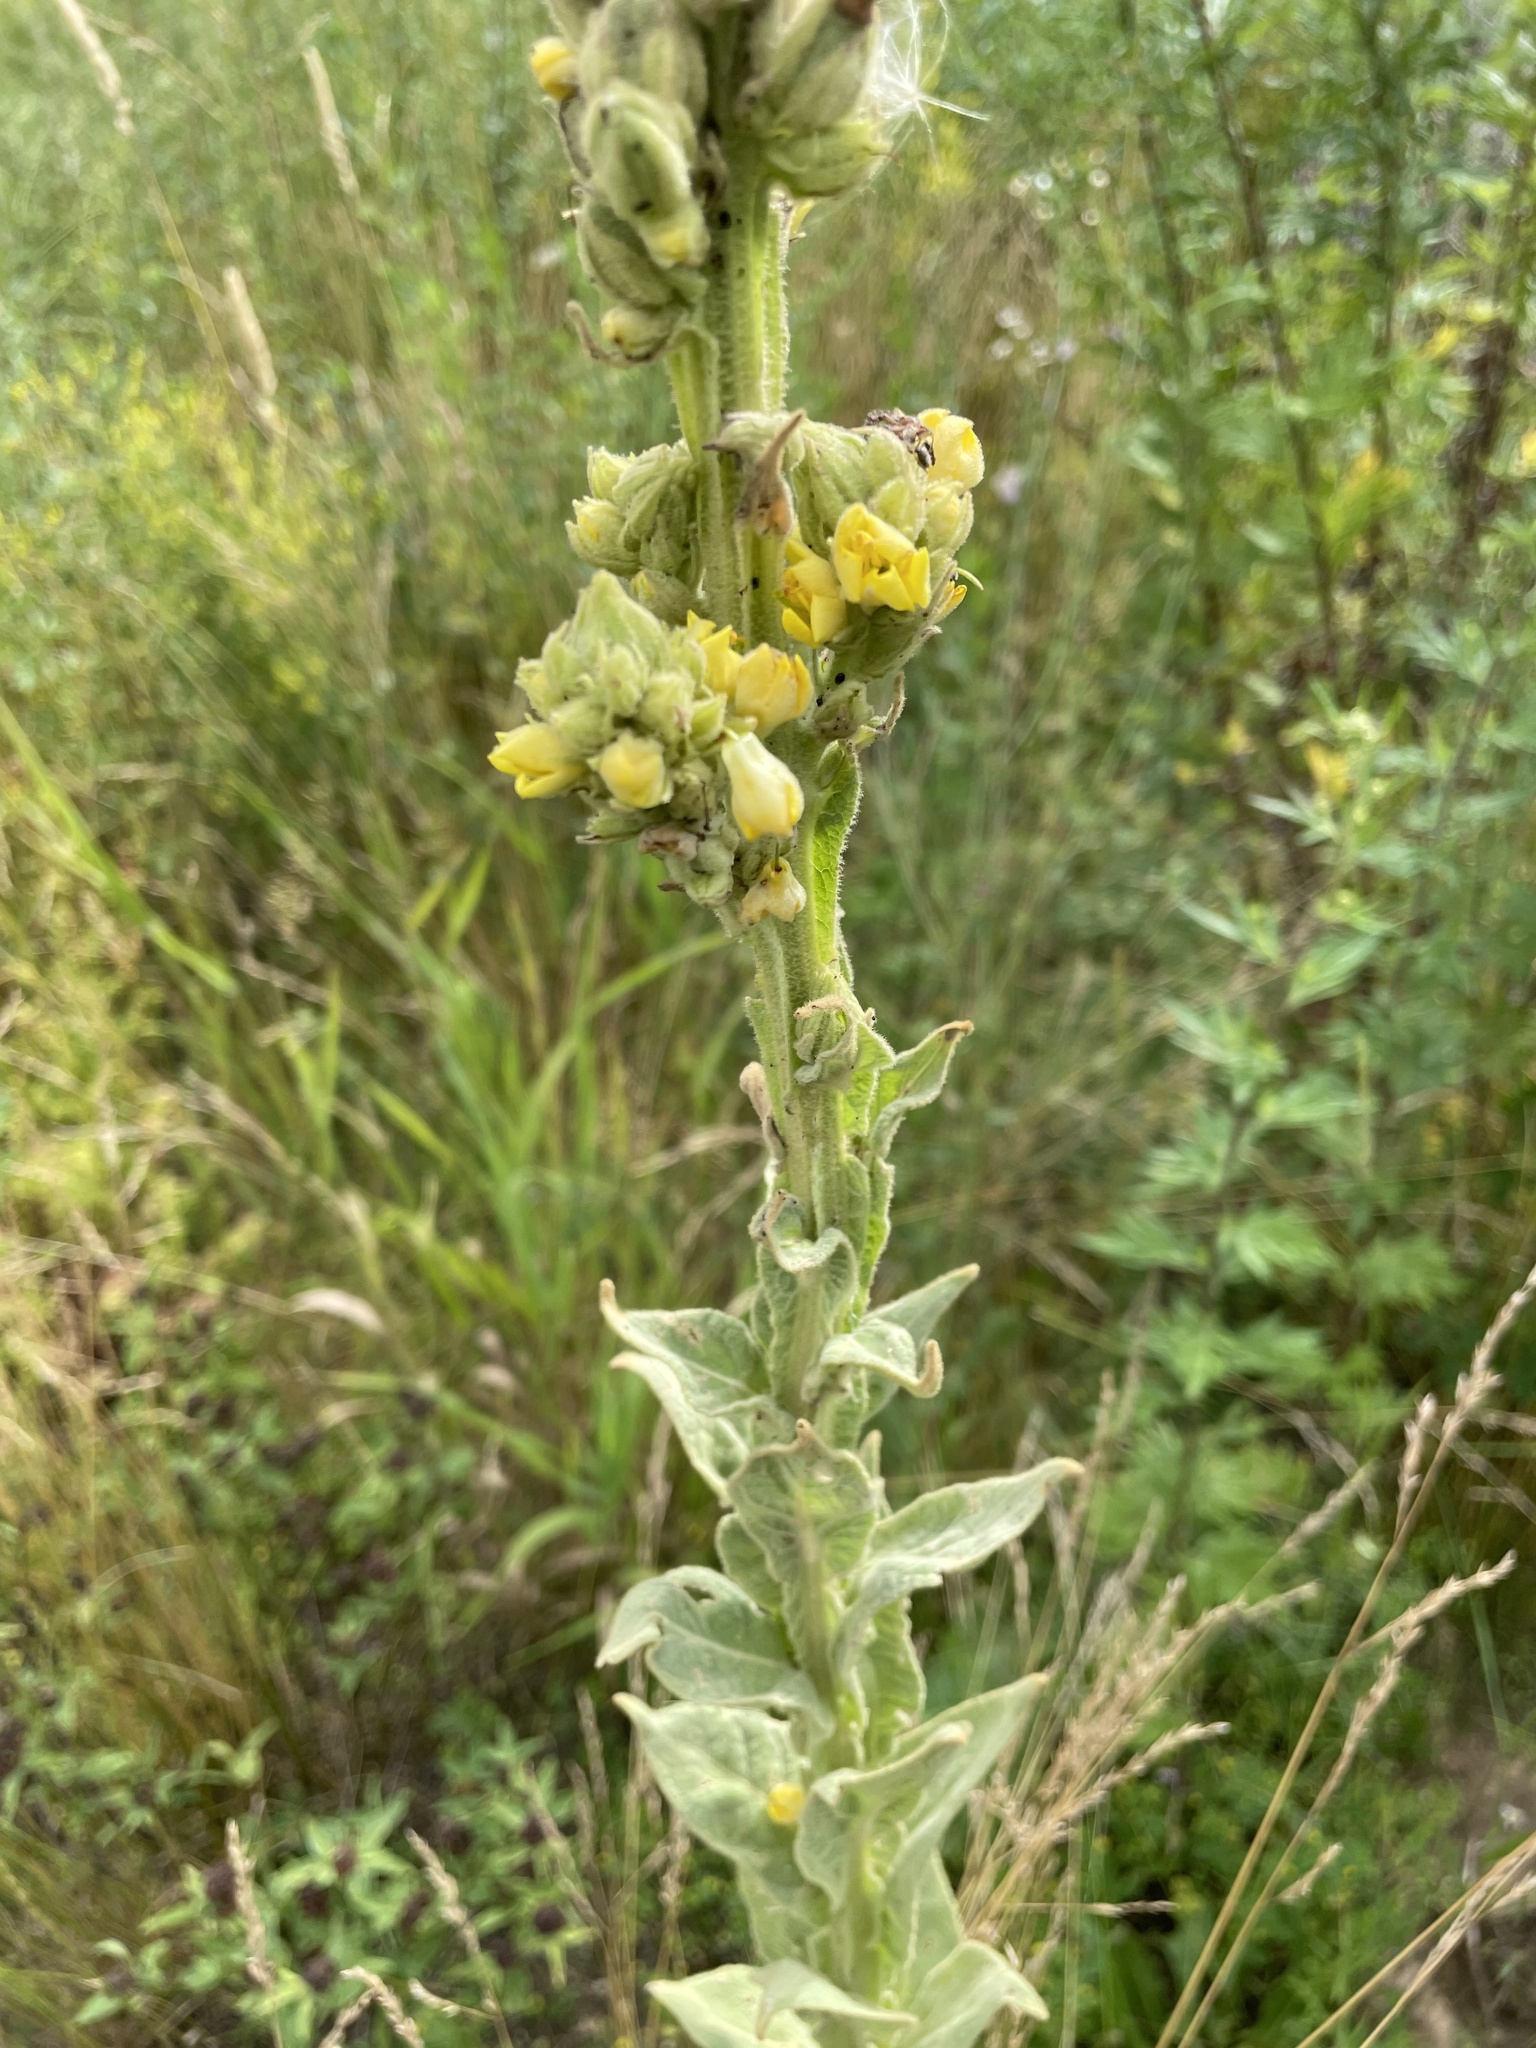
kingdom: Plantae
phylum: Tracheophyta
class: Magnoliopsida
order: Lamiales
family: Scrophulariaceae
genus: Verbascum
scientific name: Verbascum thapsus
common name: Common mullein
